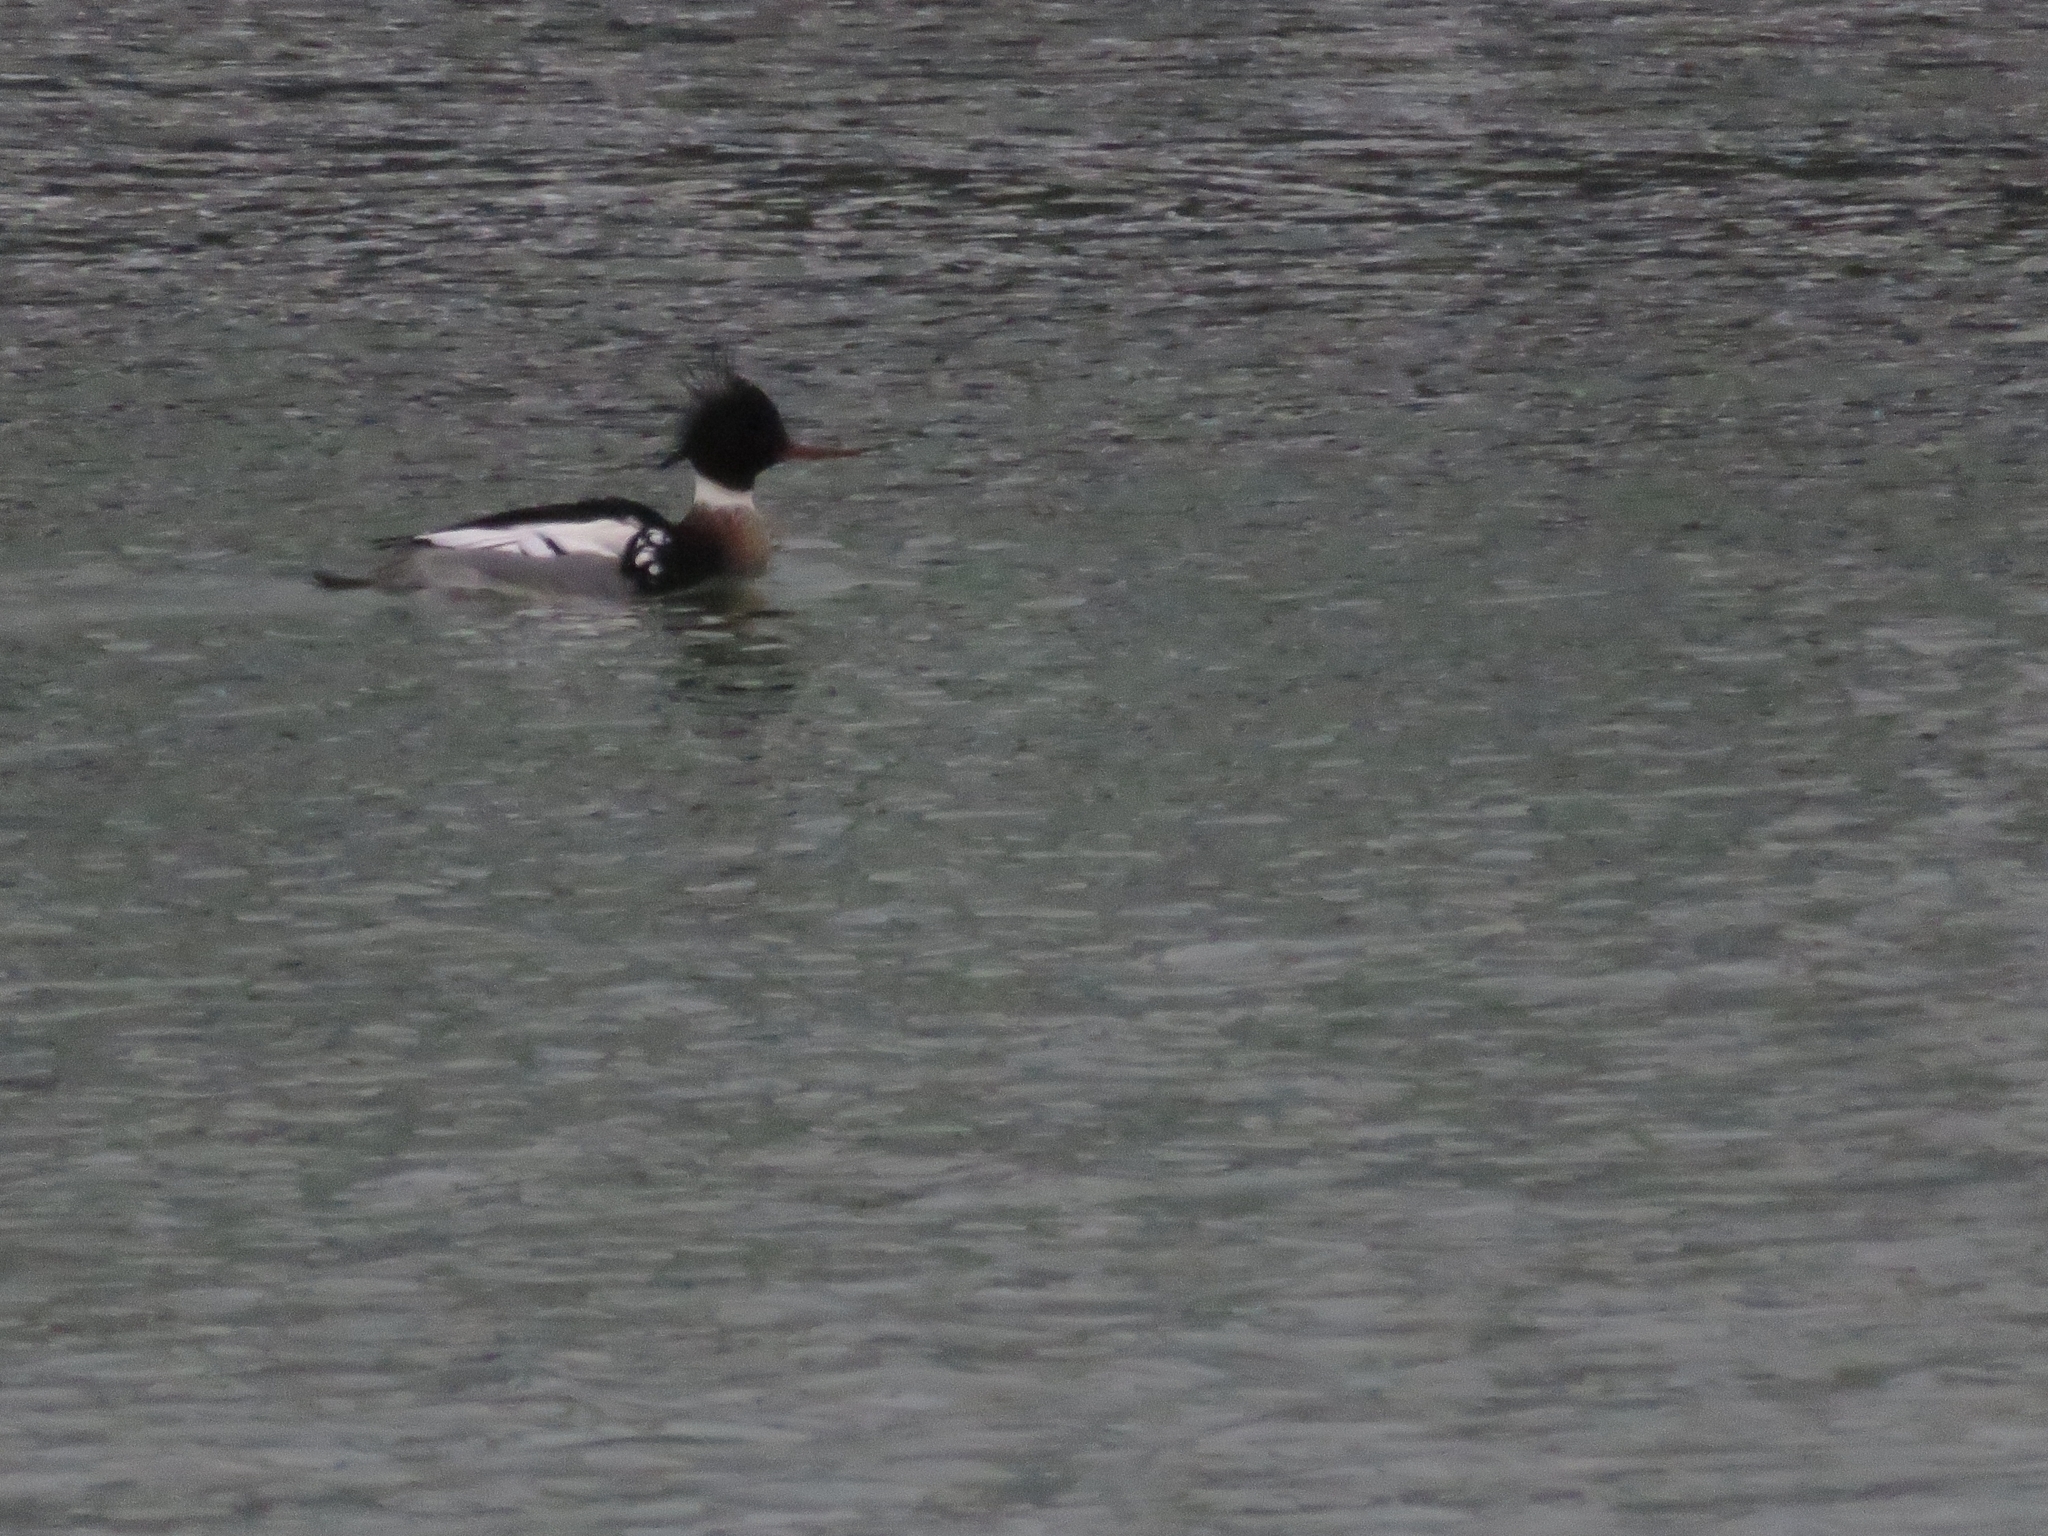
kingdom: Animalia
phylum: Chordata
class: Aves
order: Anseriformes
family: Anatidae
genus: Mergus
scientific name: Mergus serrator
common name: Red-breasted merganser
